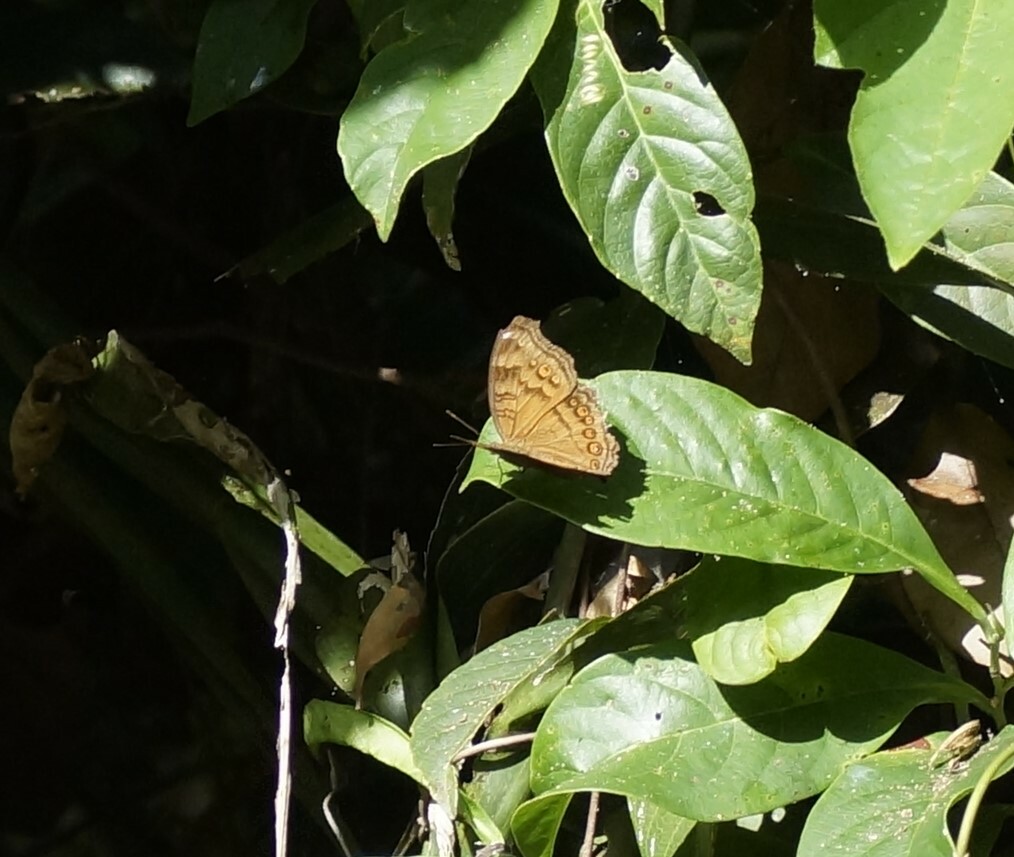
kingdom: Animalia
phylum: Arthropoda
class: Insecta
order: Lepidoptera
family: Nymphalidae
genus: Junonia
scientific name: Junonia hedonia
